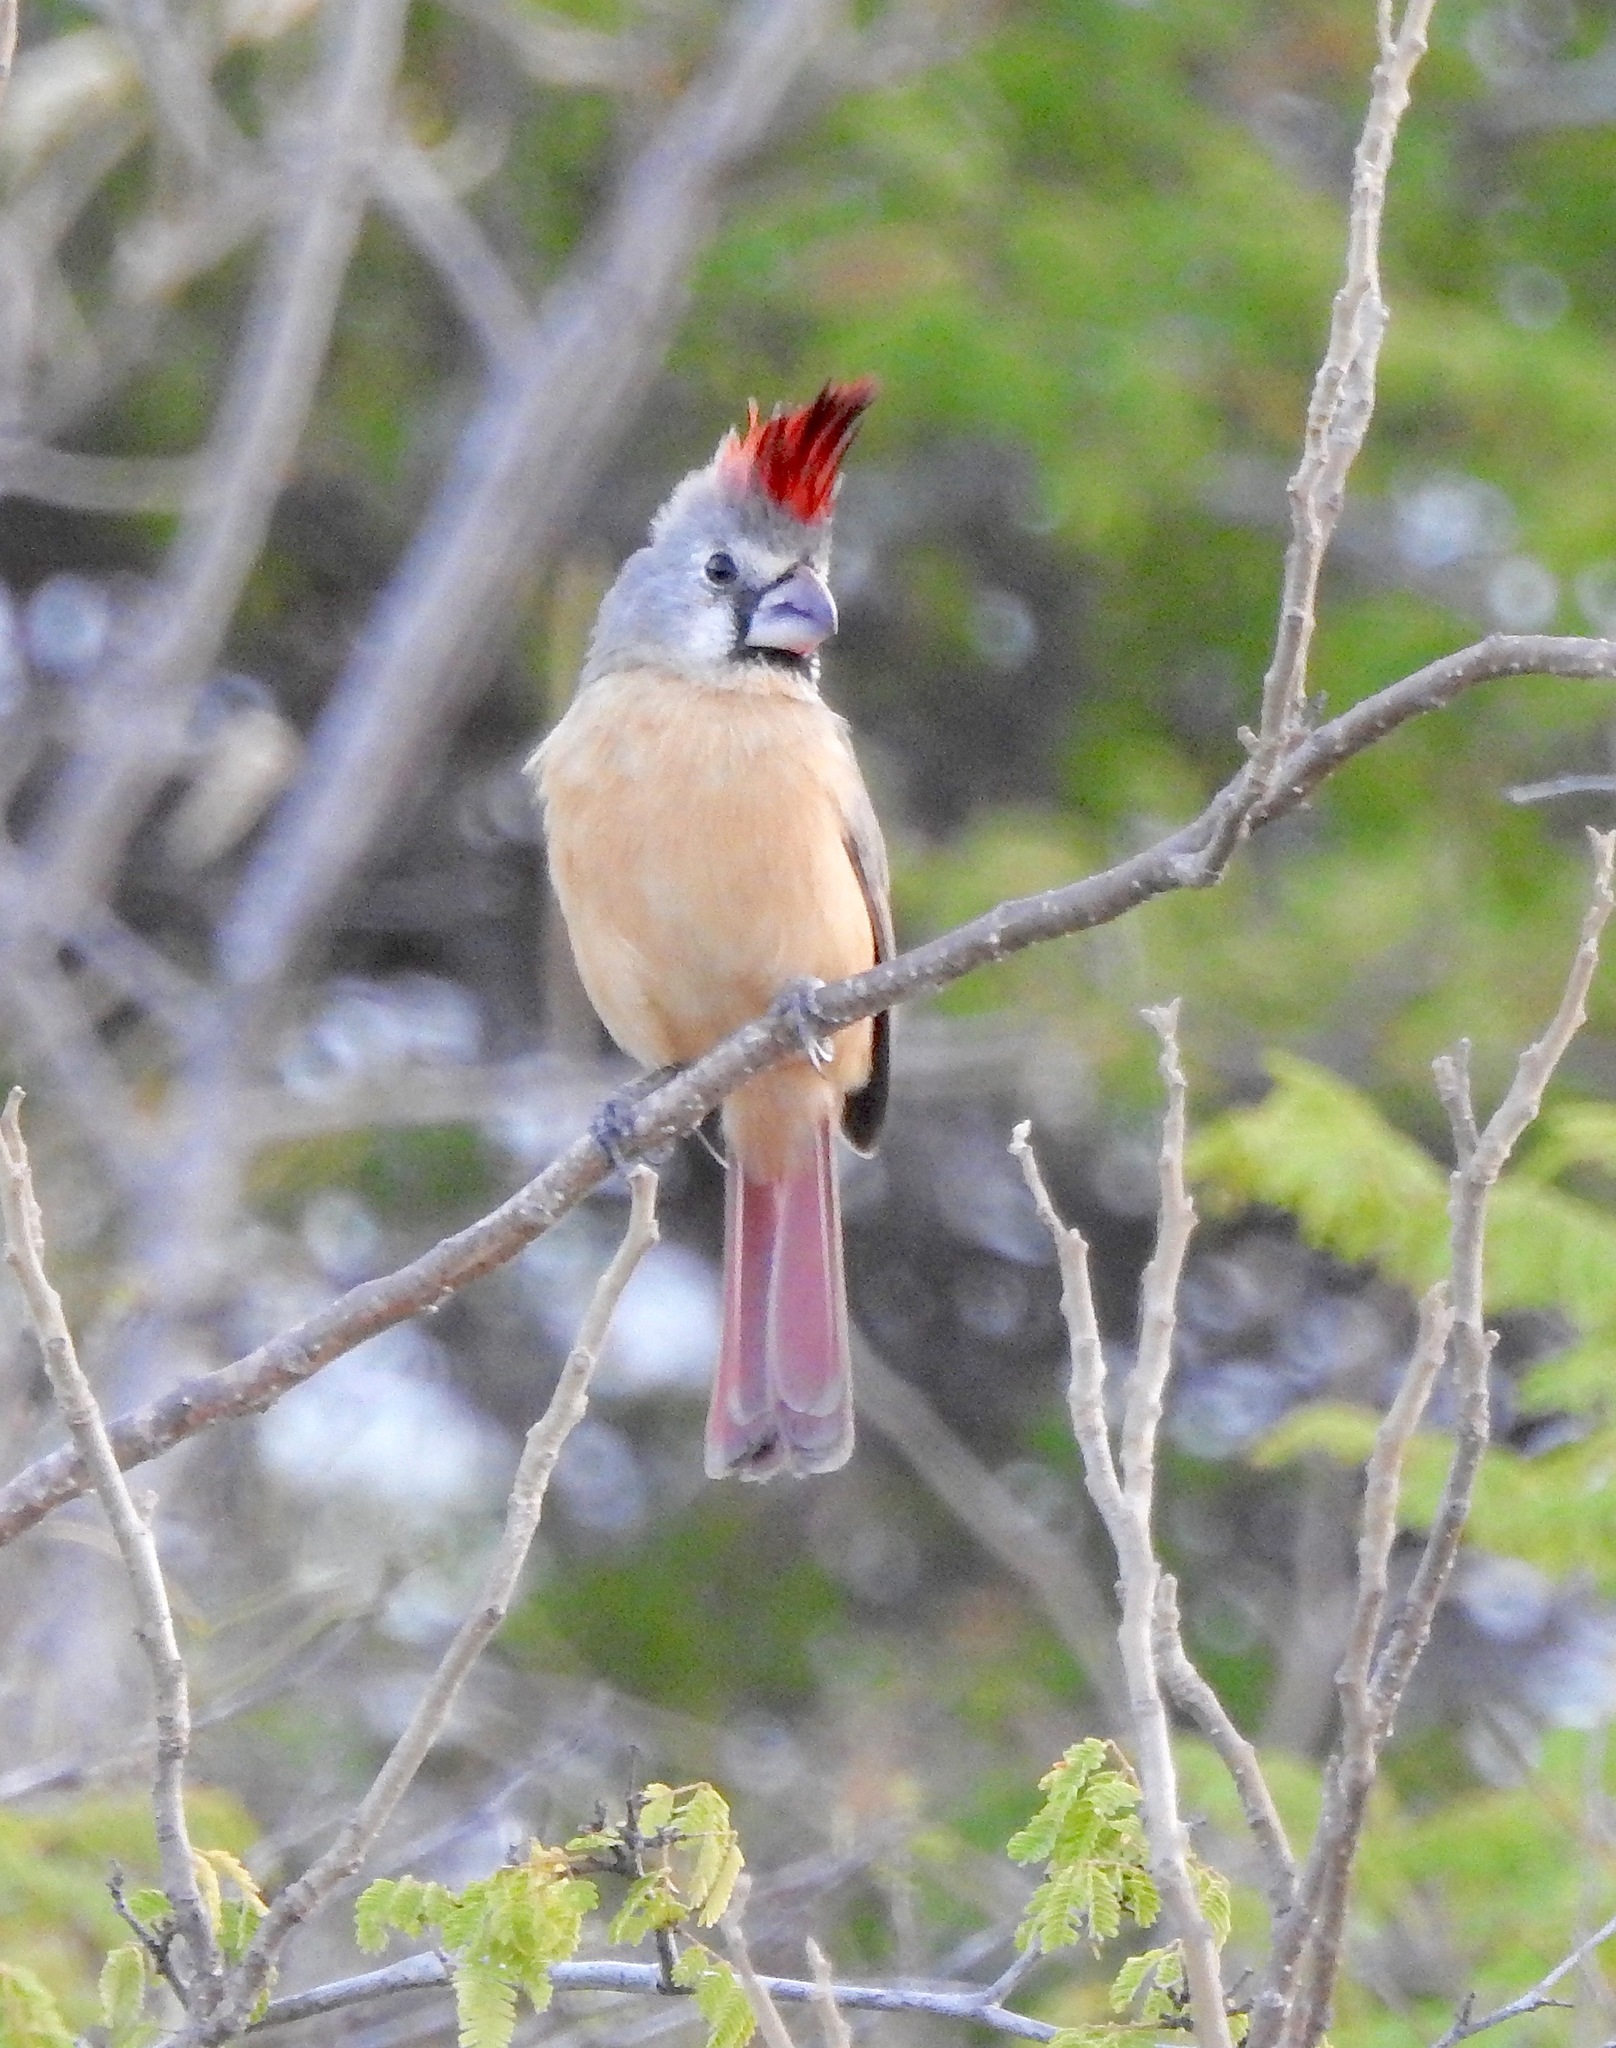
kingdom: Animalia
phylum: Chordata
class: Aves
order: Passeriformes
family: Cardinalidae
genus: Cardinalis
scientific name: Cardinalis phoeniceus
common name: Vermilion cardinal
